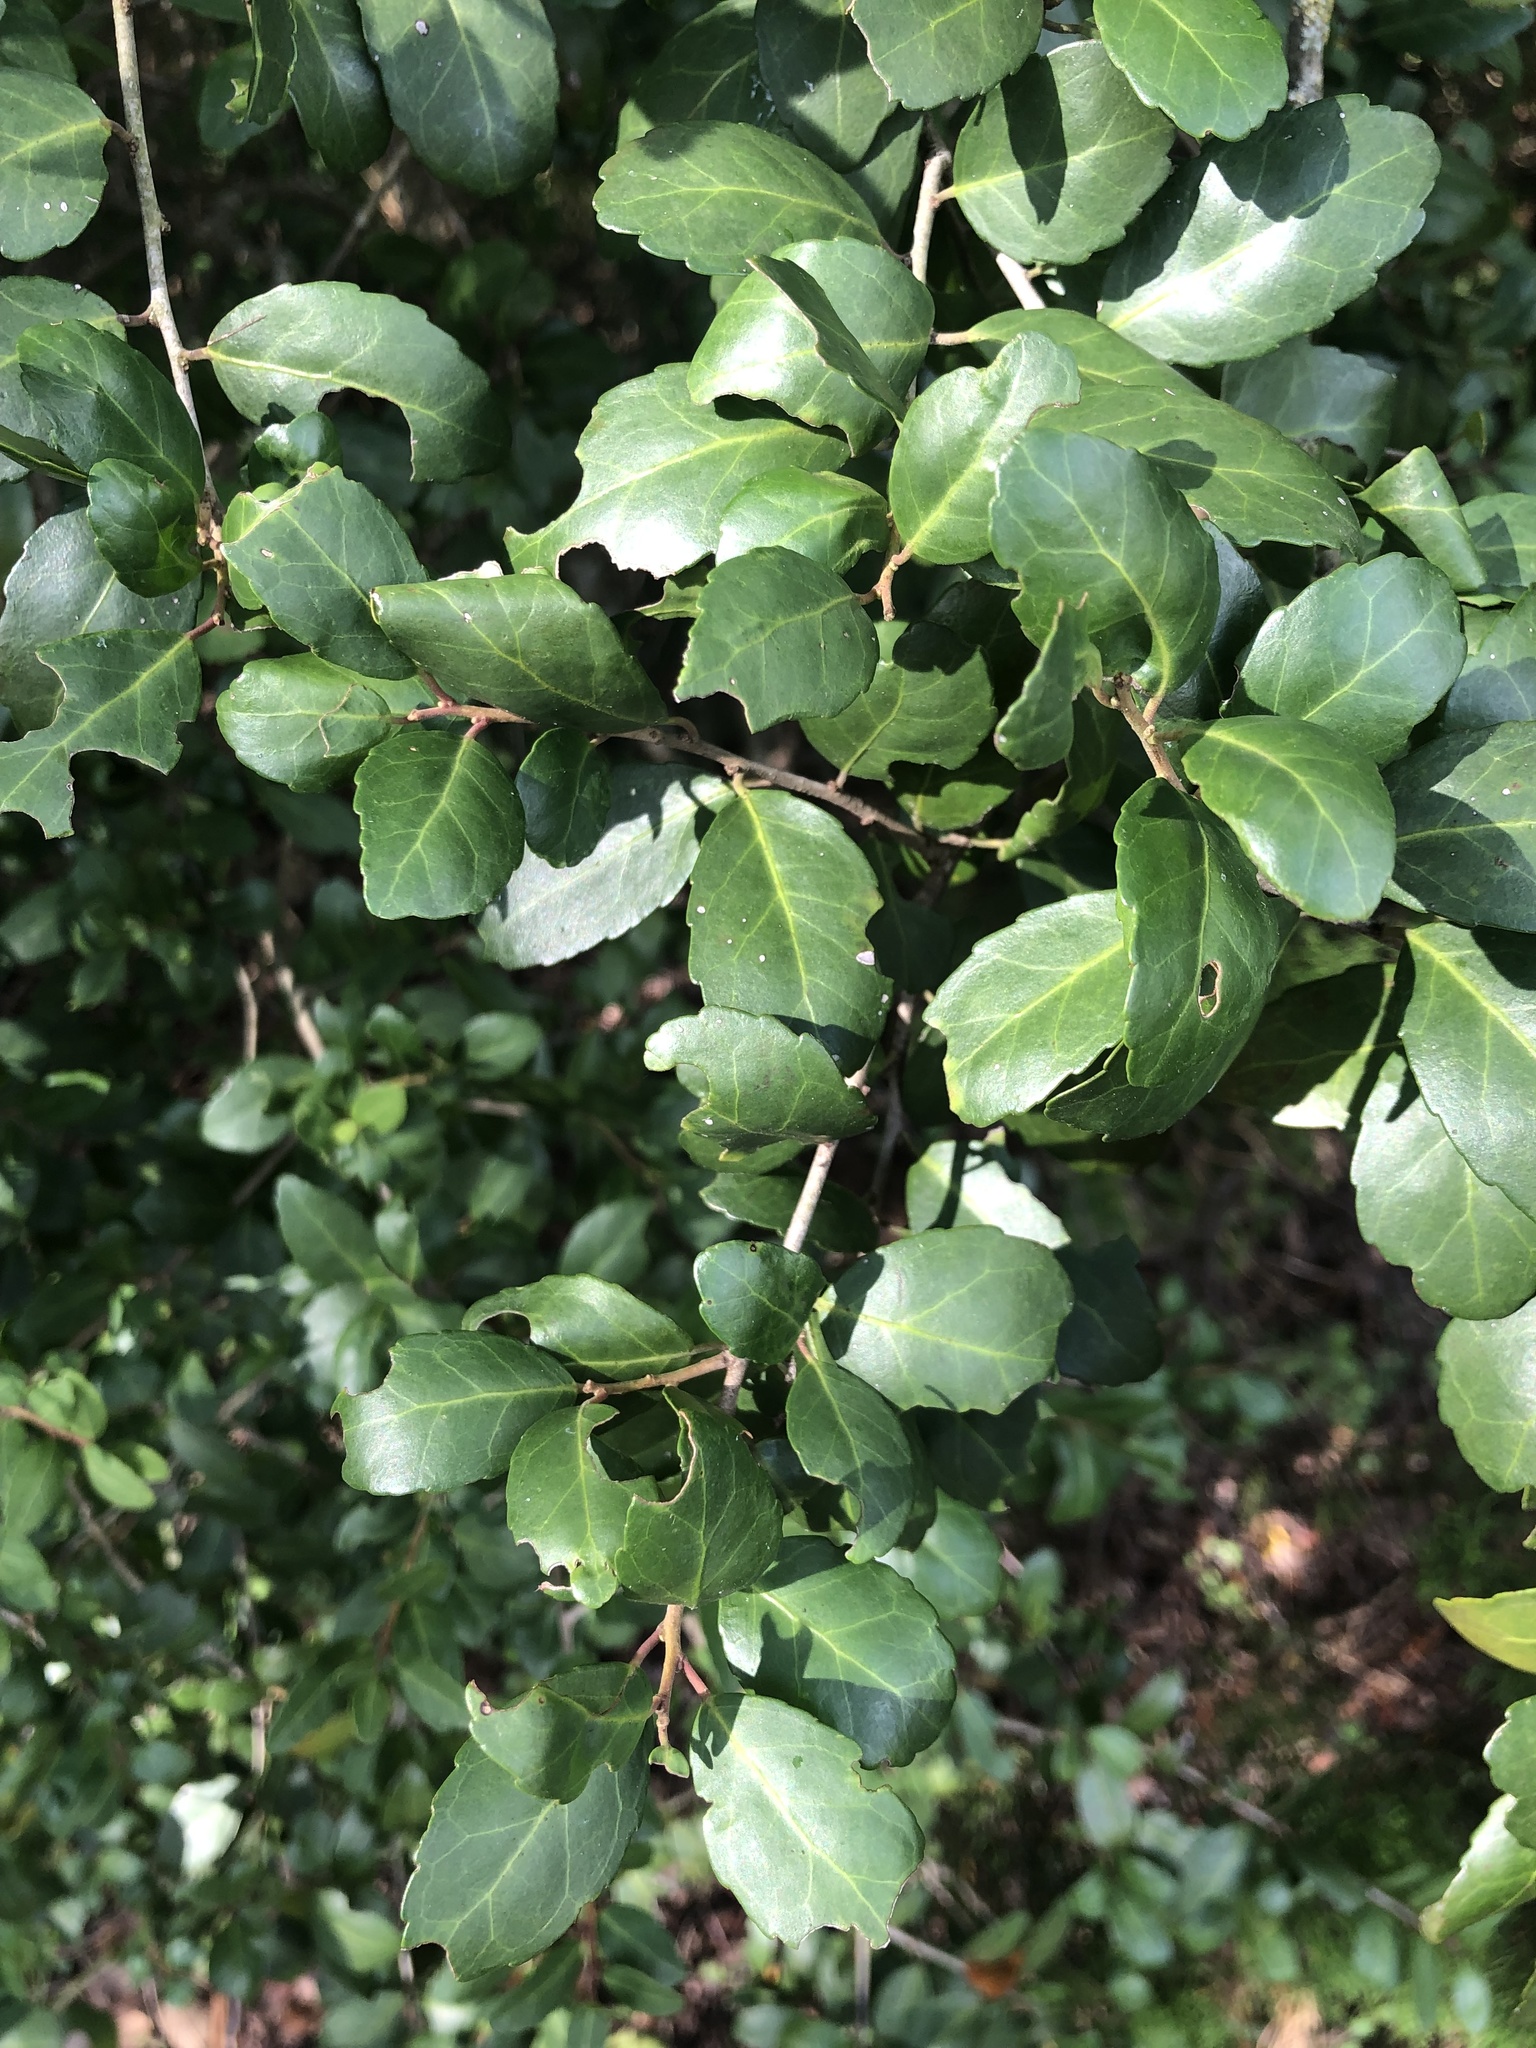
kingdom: Plantae
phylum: Tracheophyta
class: Magnoliopsida
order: Aquifoliales
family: Aquifoliaceae
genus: Ilex
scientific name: Ilex vomitoria
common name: Yaupon holly
